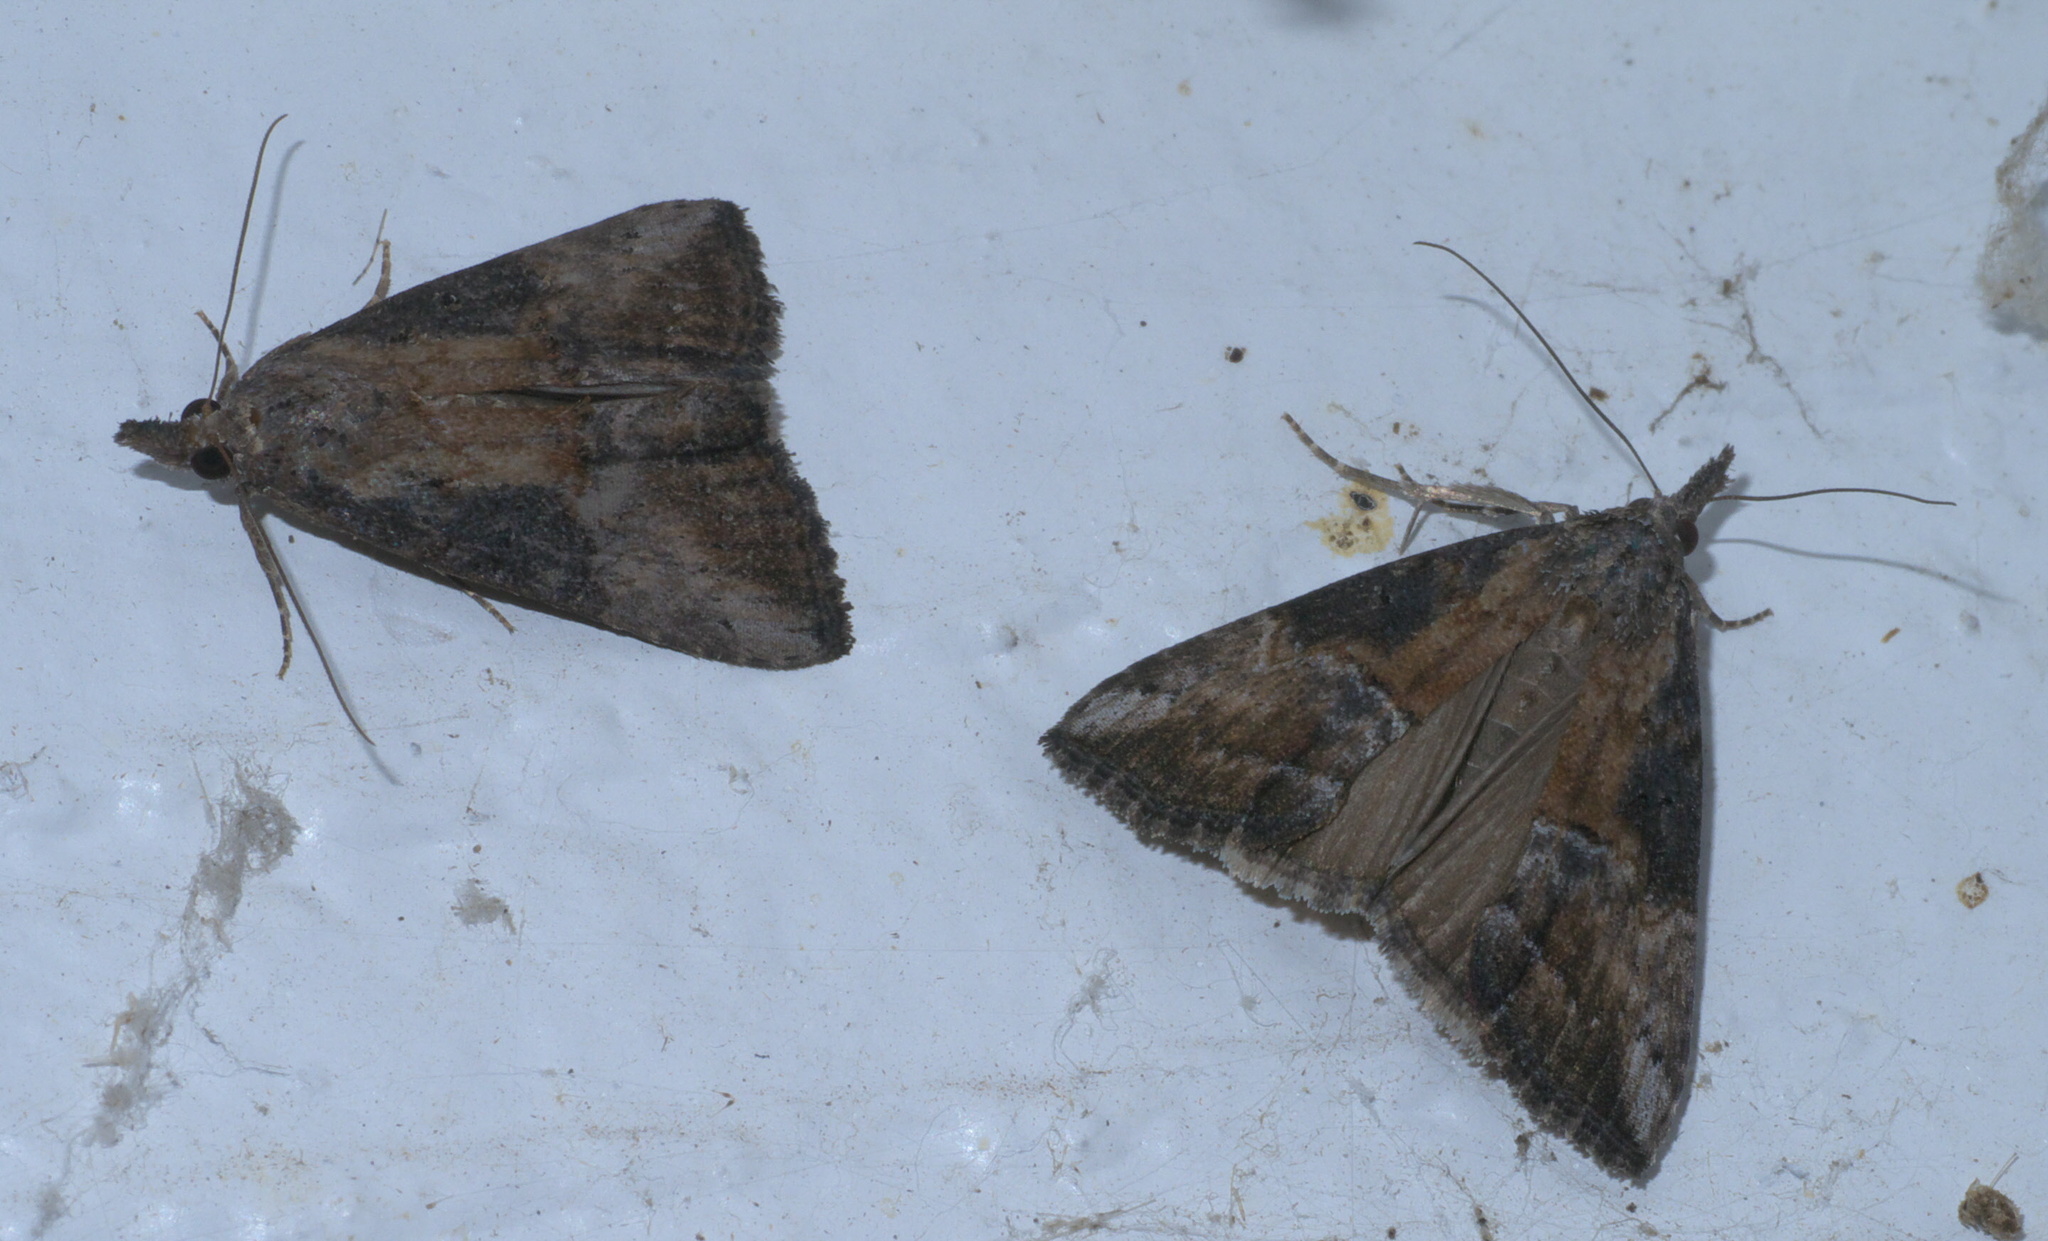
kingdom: Animalia
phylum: Arthropoda
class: Insecta
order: Lepidoptera
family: Erebidae
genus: Hypena
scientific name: Hypena scabra
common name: Green cloverworm
